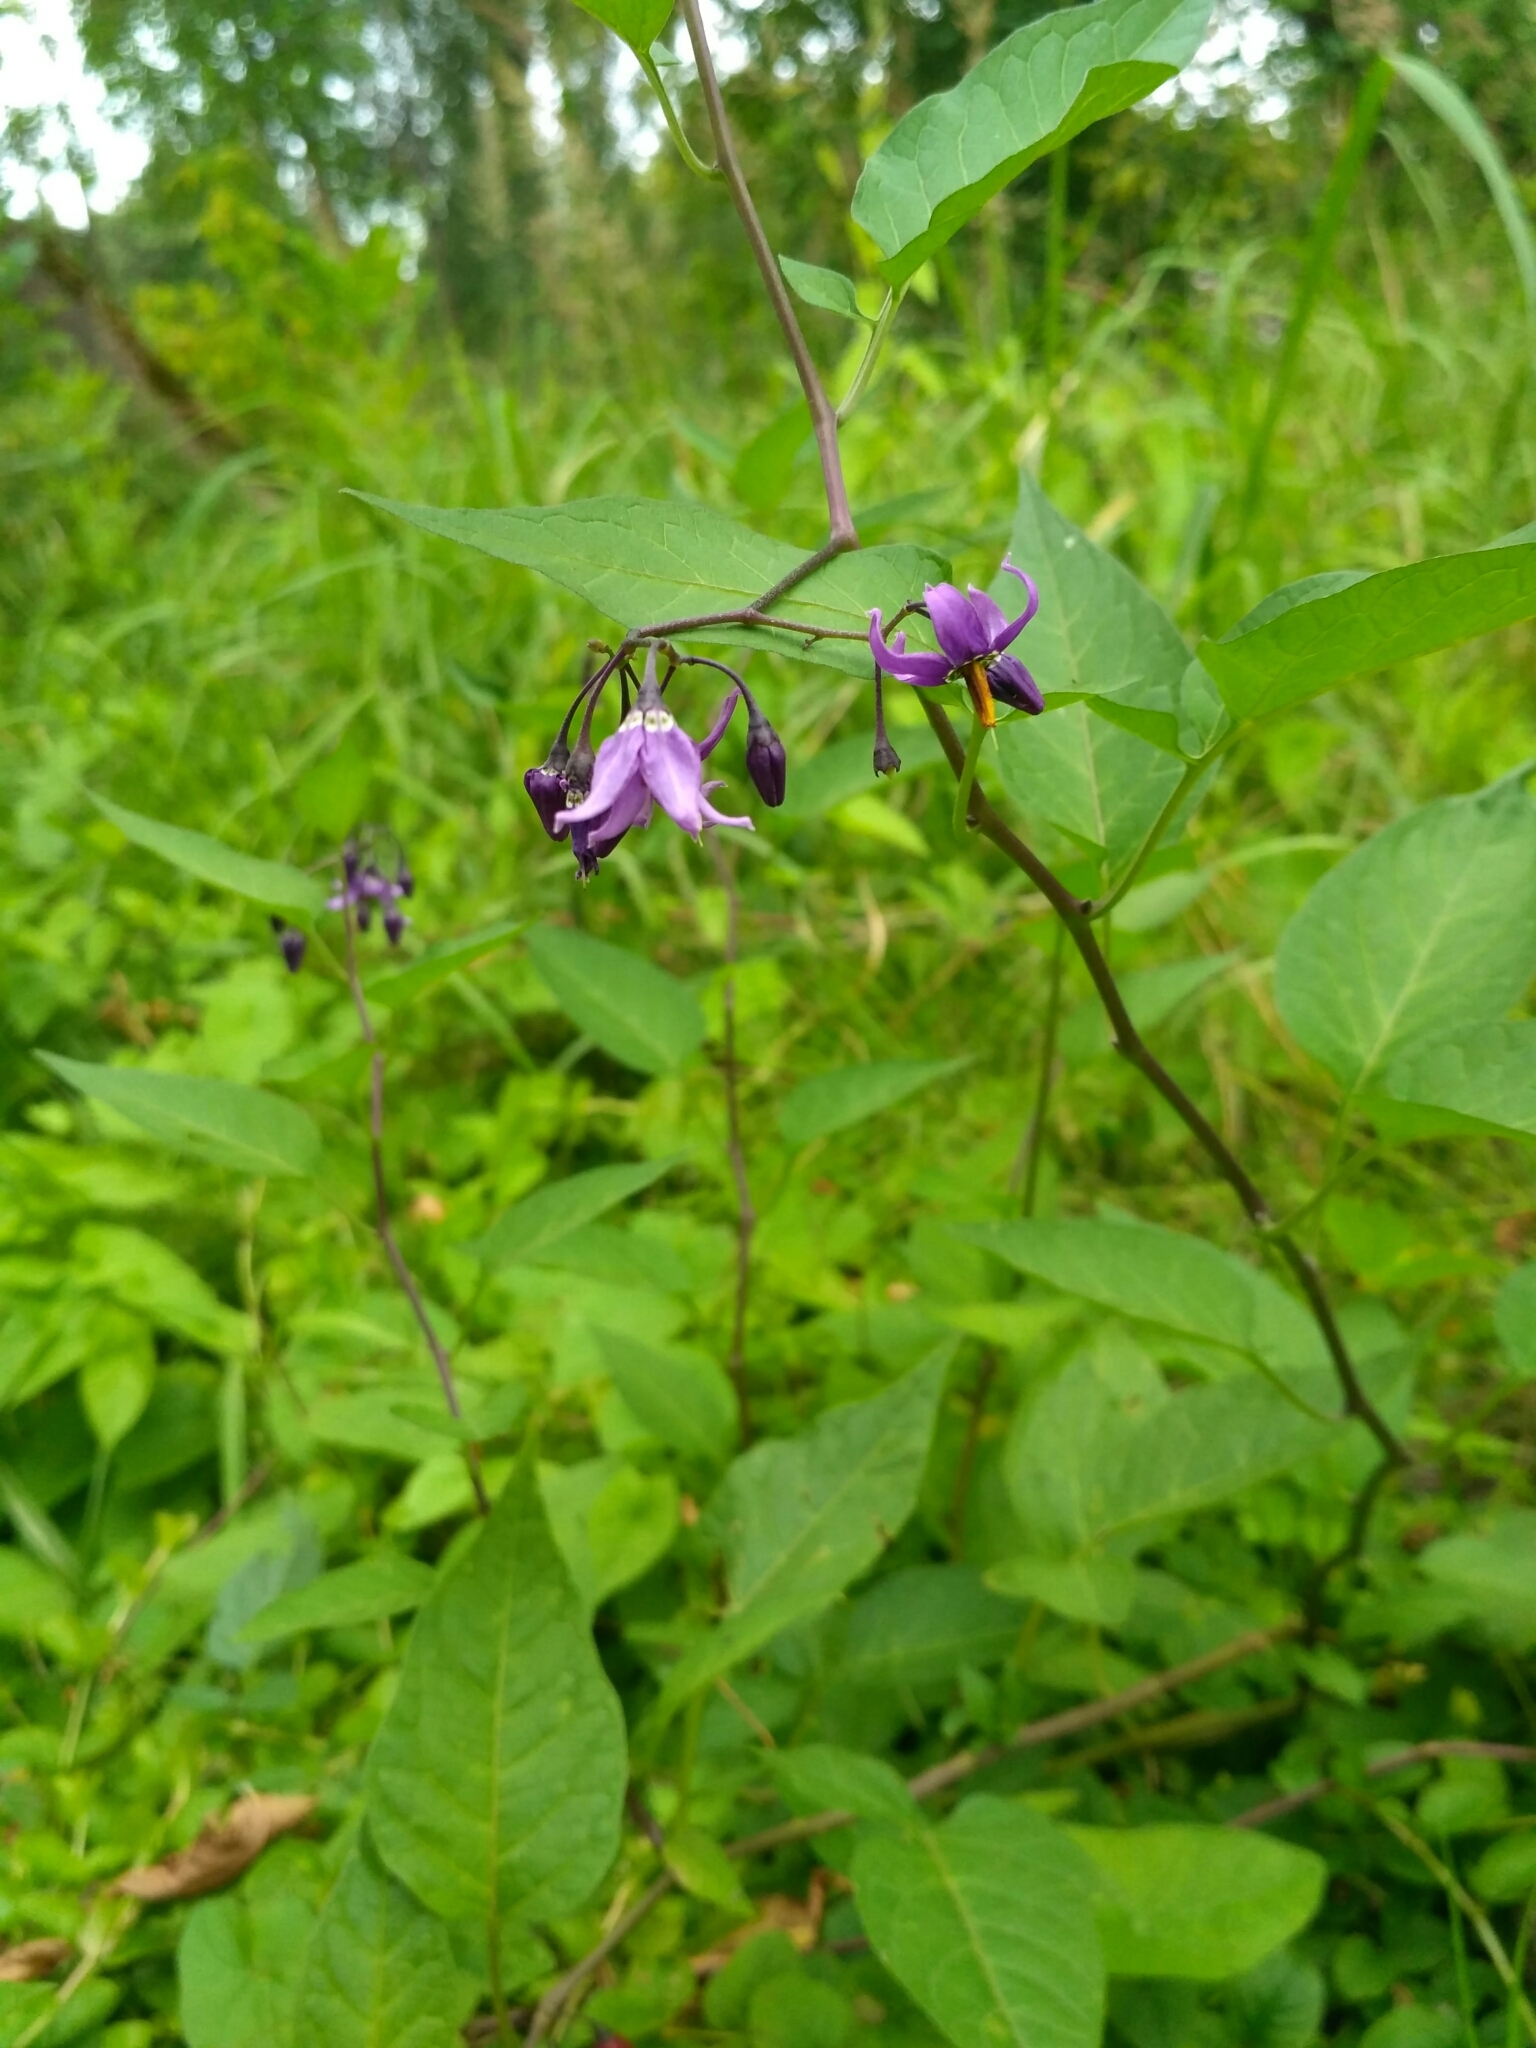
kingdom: Plantae
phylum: Tracheophyta
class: Magnoliopsida
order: Solanales
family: Solanaceae
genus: Solanum
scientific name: Solanum dulcamara
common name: Climbing nightshade
